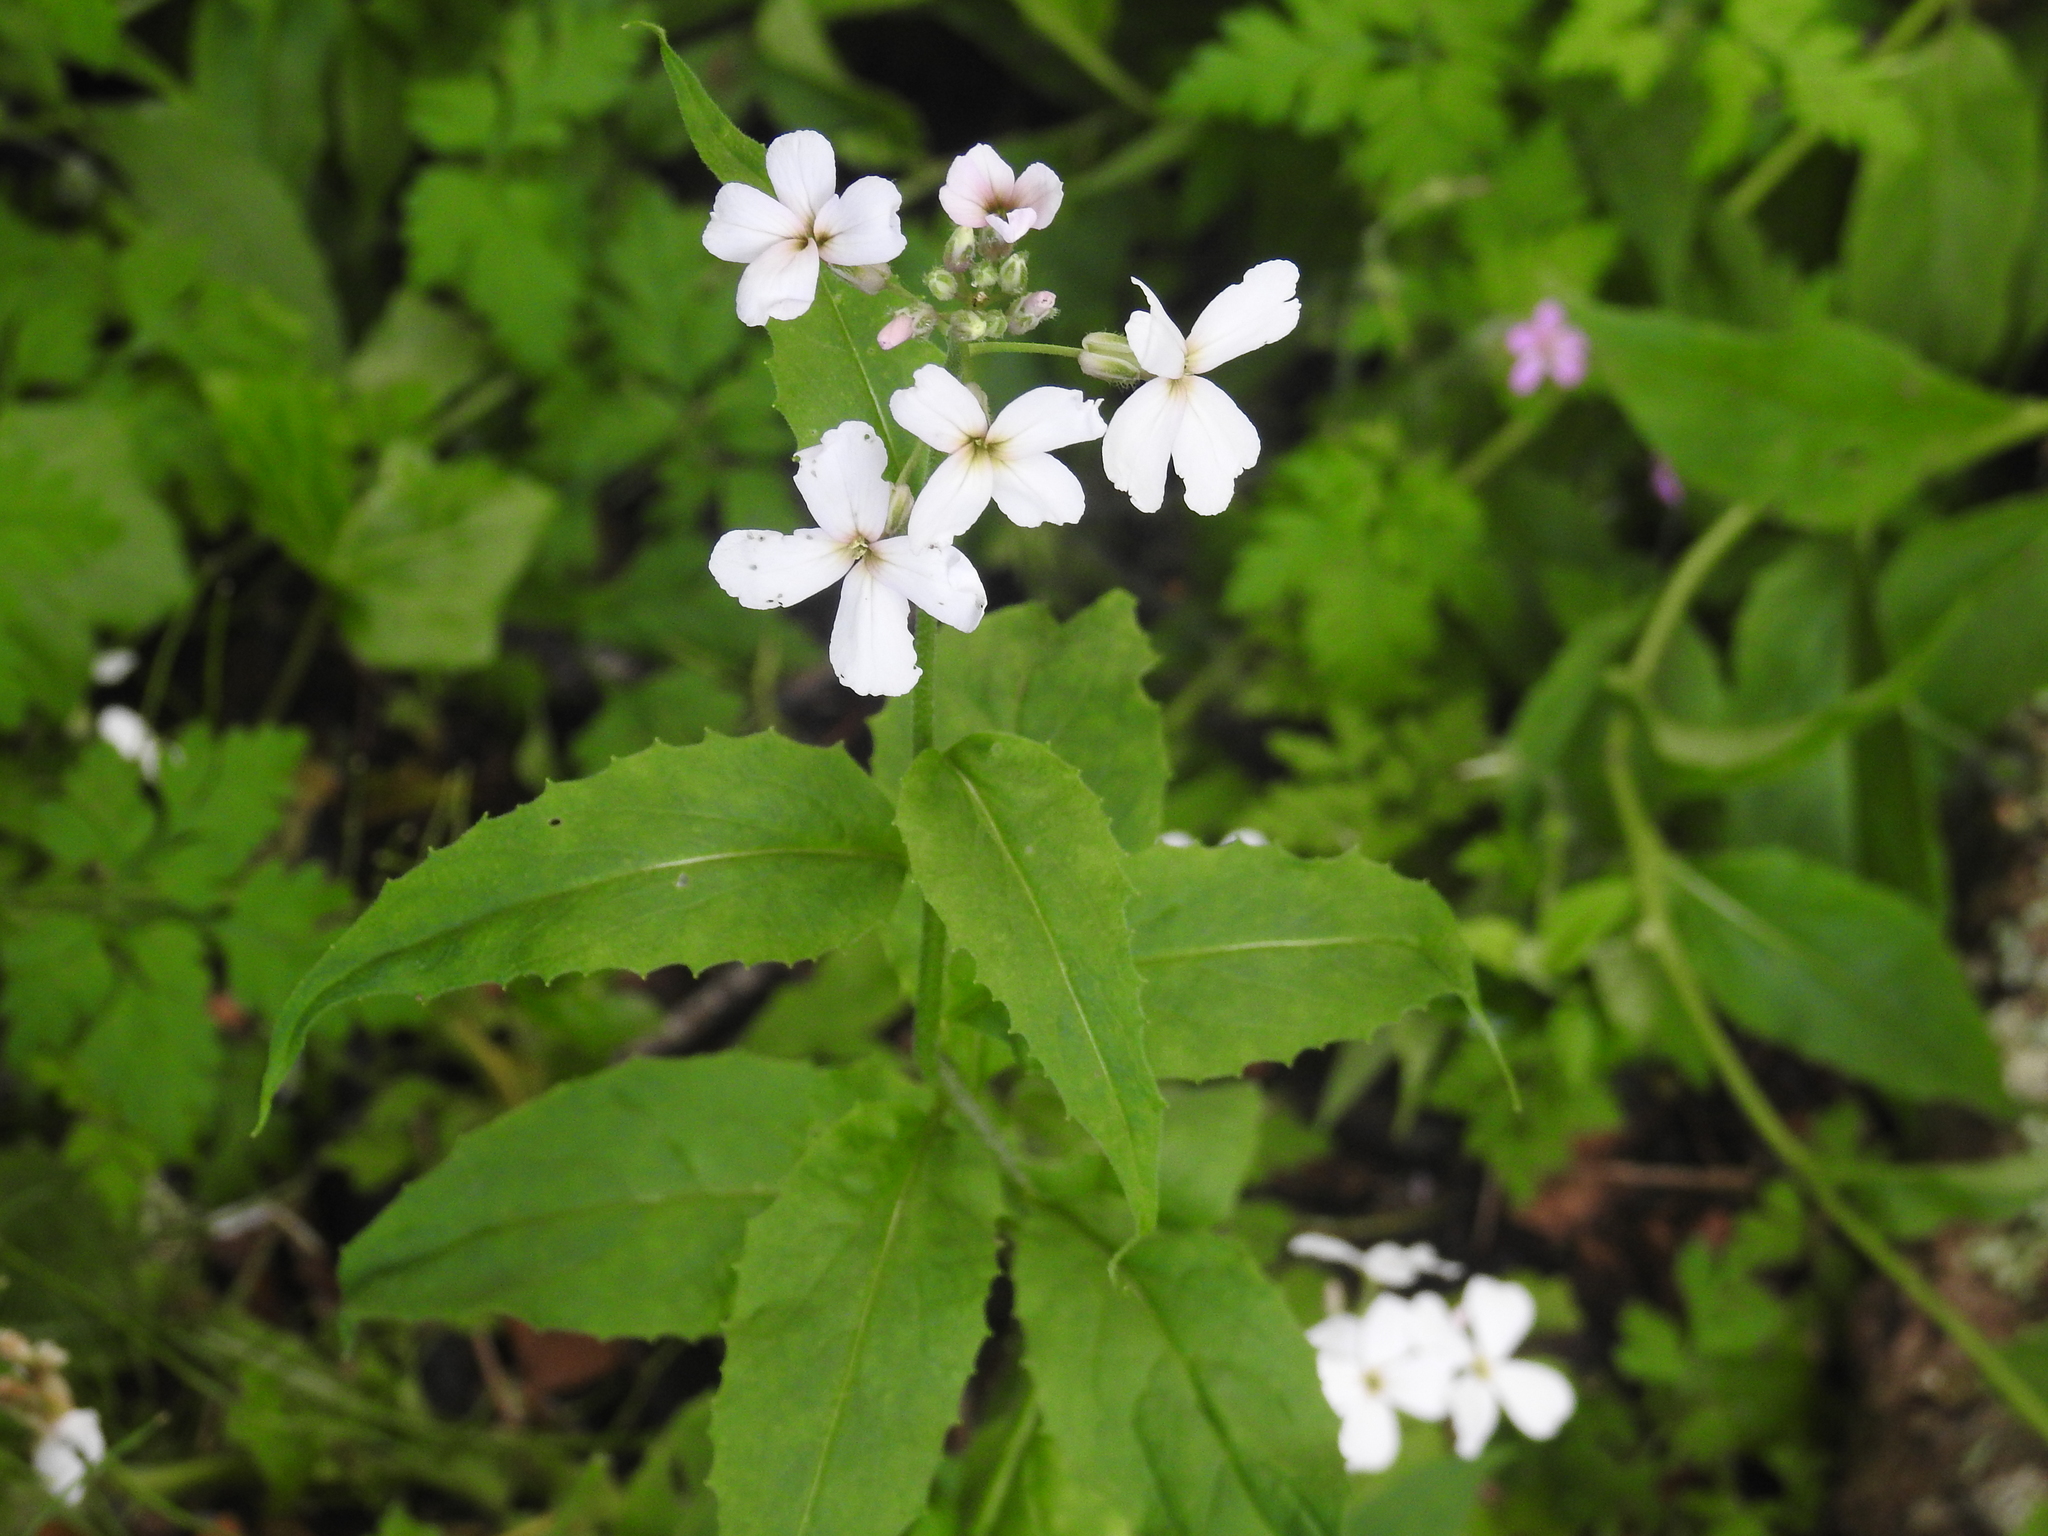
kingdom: Plantae
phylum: Tracheophyta
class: Magnoliopsida
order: Brassicales
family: Brassicaceae
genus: Hesperis
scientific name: Hesperis matronalis
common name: Dame's-violet
